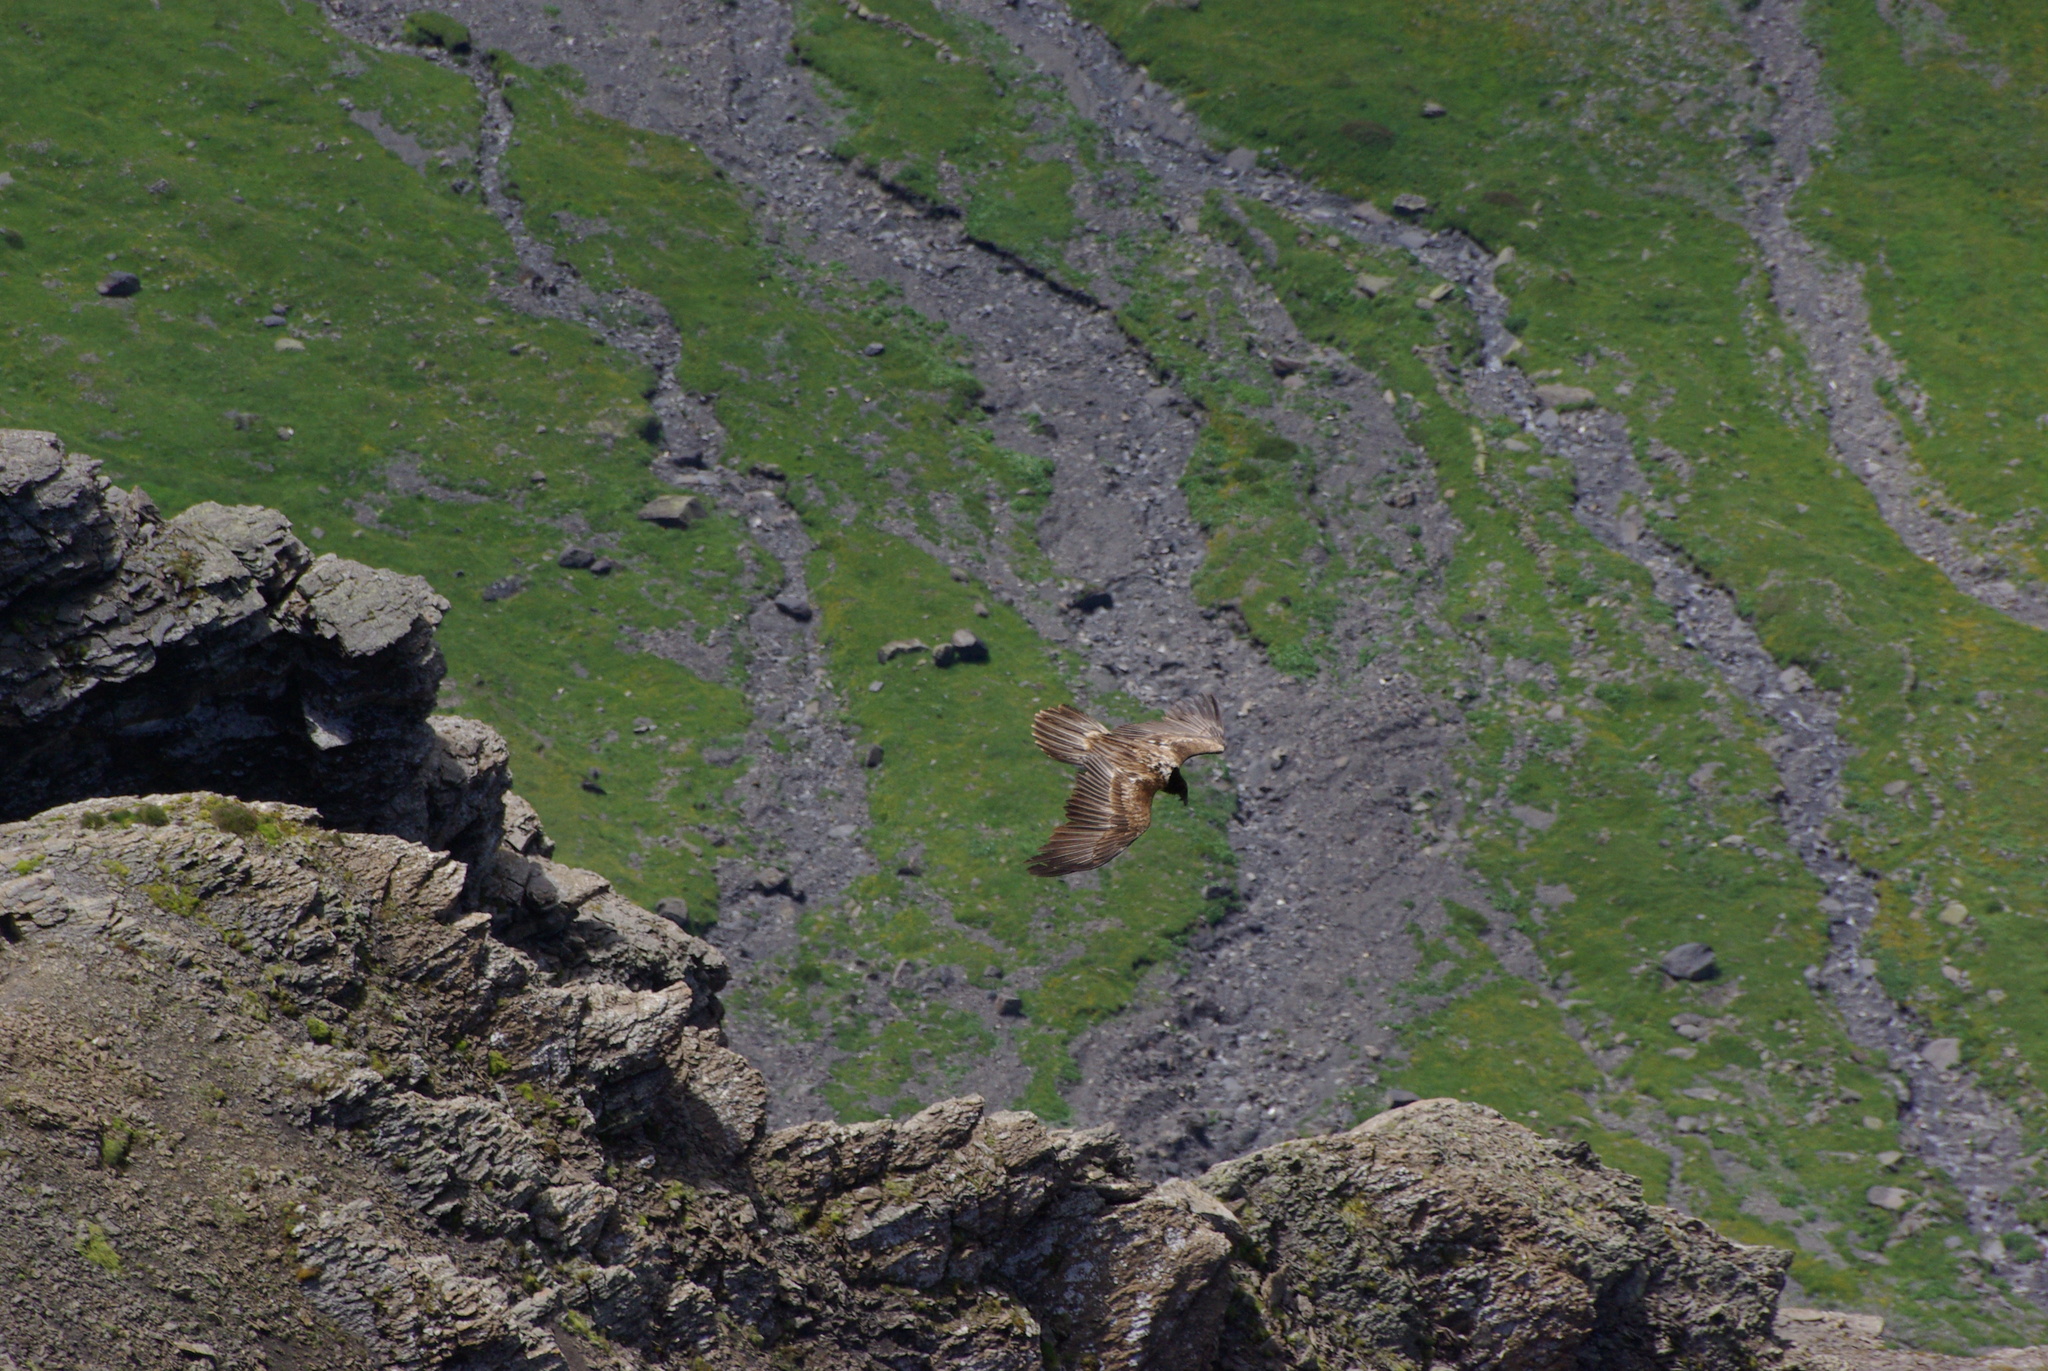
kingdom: Animalia
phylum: Chordata
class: Aves
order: Accipitriformes
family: Accipitridae
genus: Gypaetus
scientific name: Gypaetus barbatus
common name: Bearded vulture
